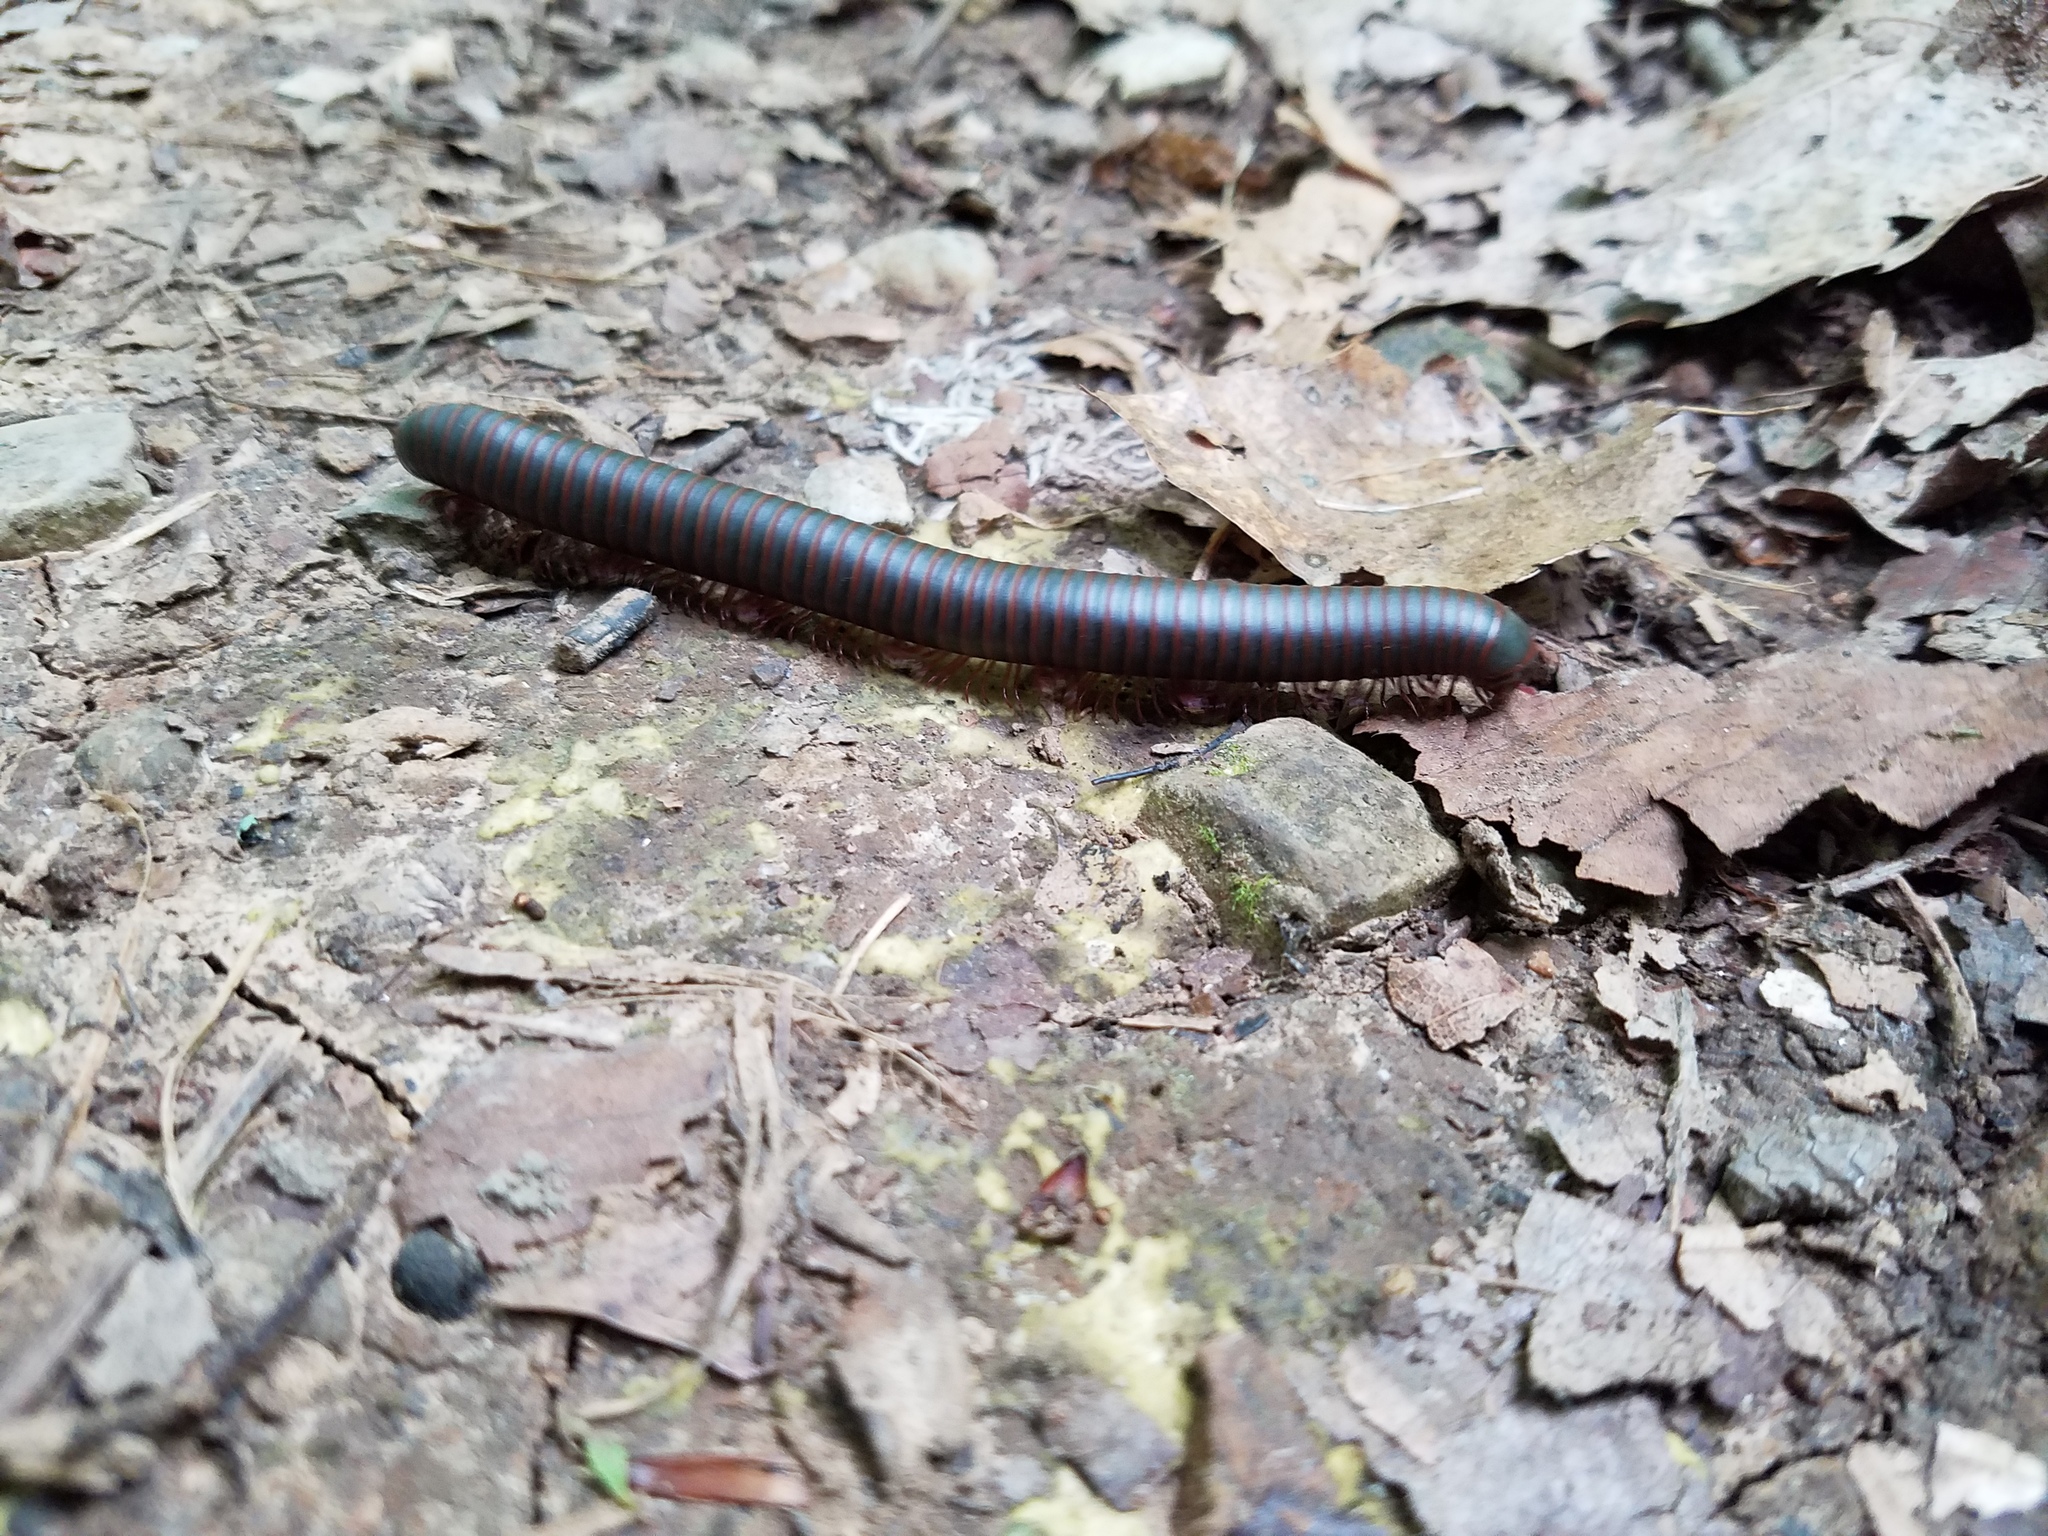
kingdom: Animalia
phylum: Arthropoda
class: Diplopoda
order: Spirobolida
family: Spirobolidae
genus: Narceus
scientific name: Narceus
